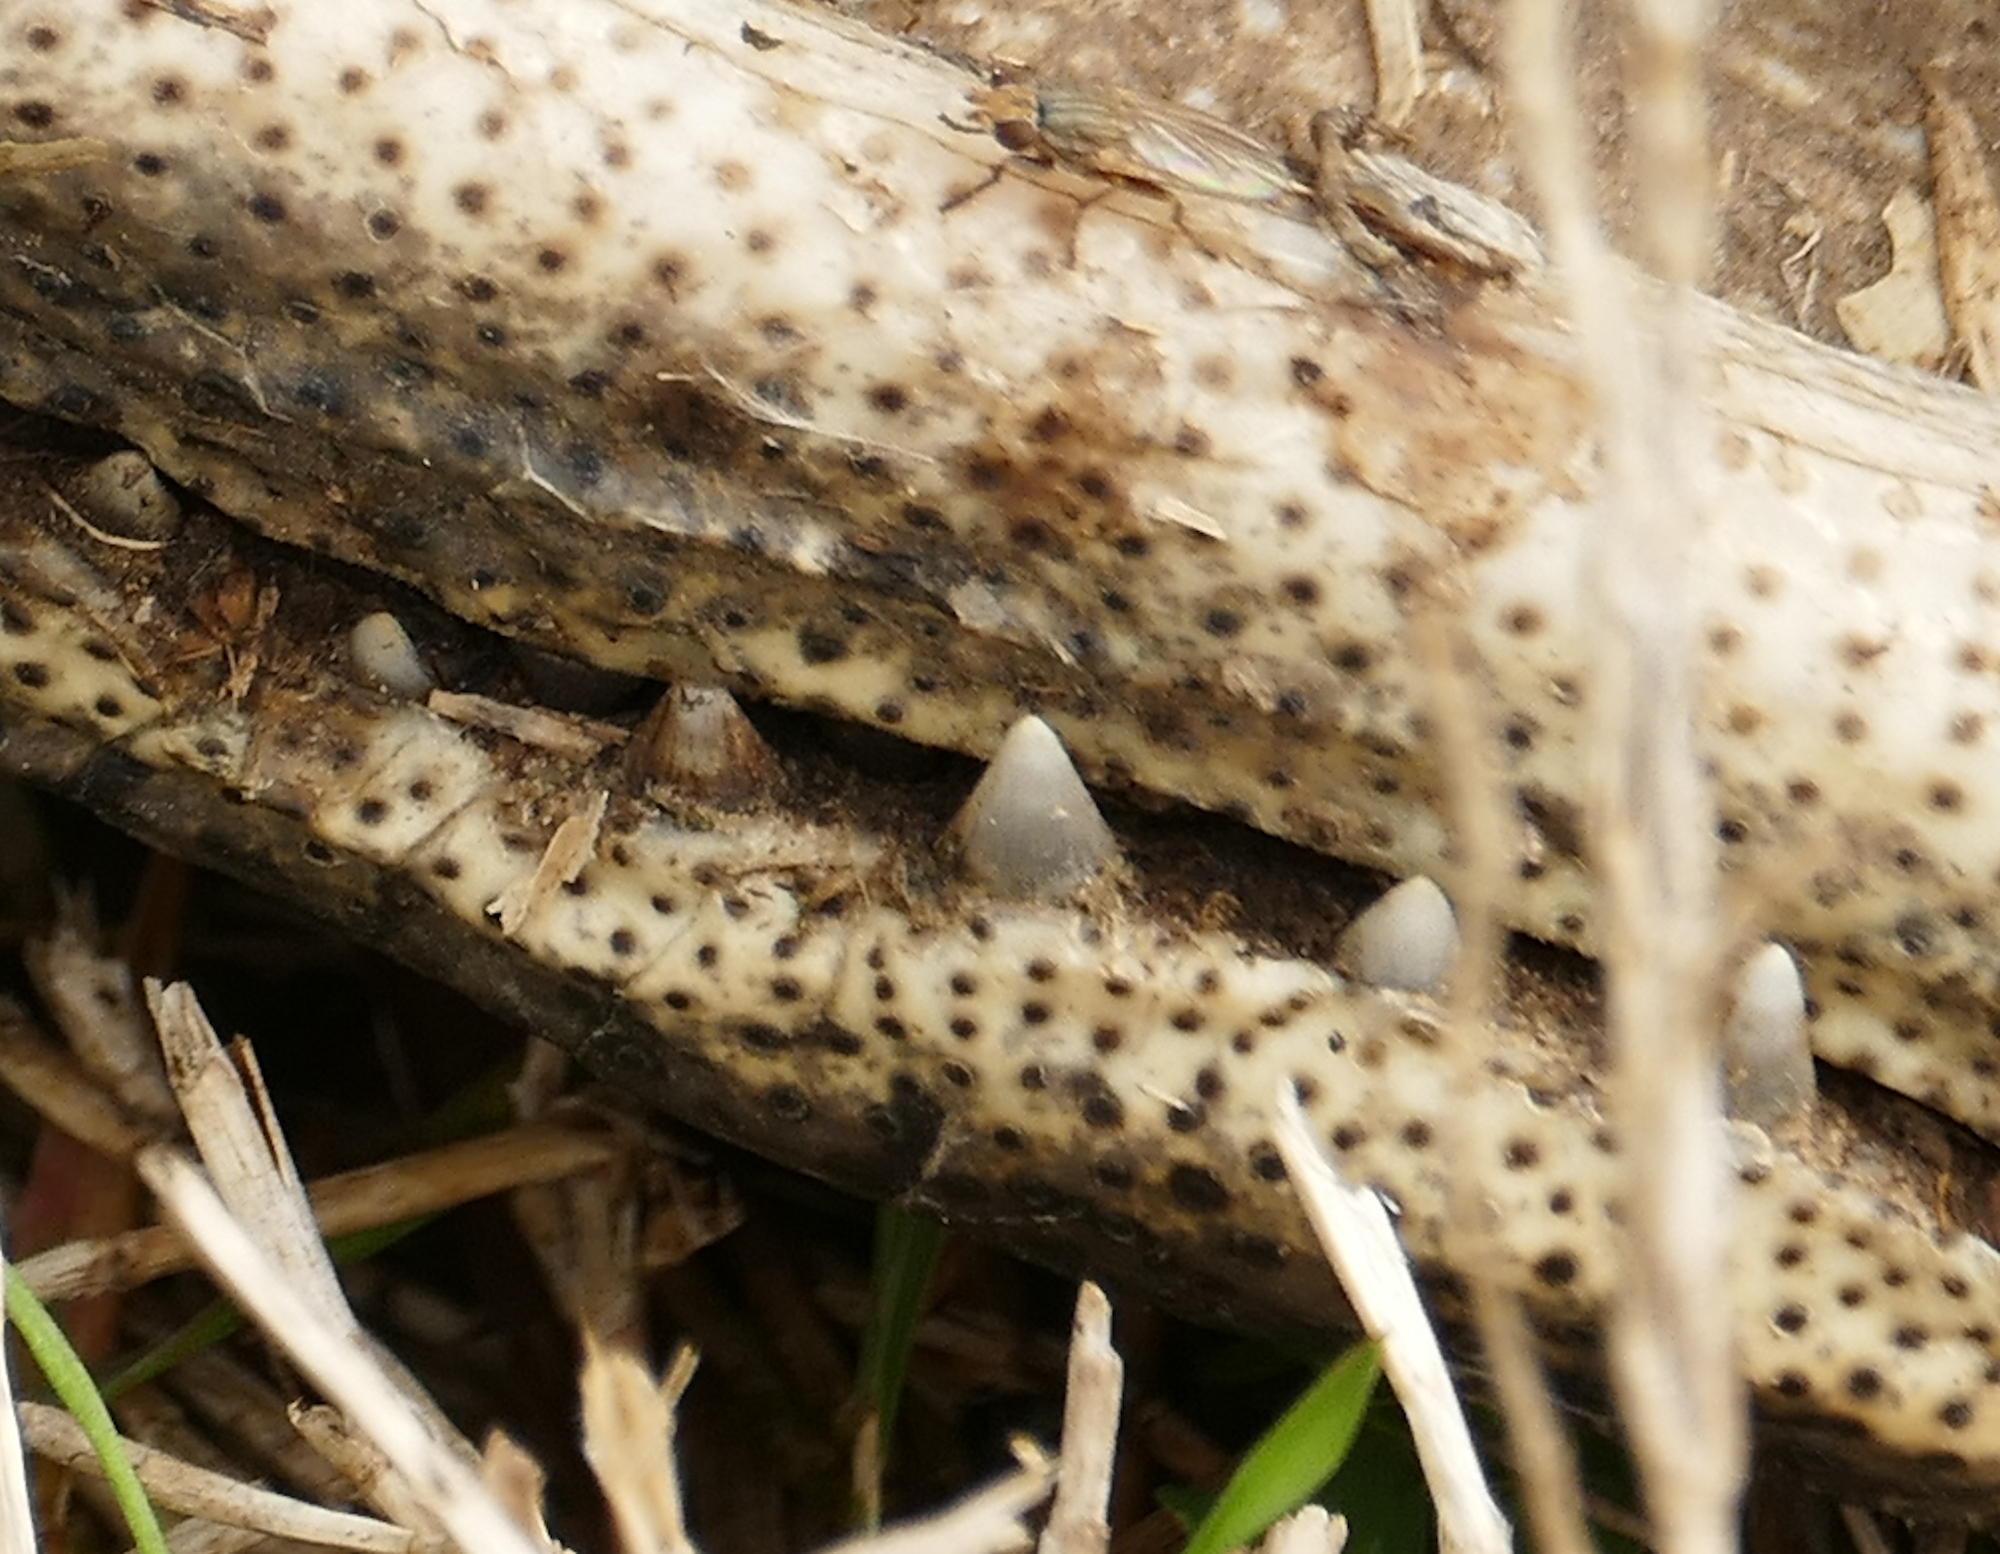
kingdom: Animalia
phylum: Chordata
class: Crocodylia
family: Alligatoridae
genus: Alligator
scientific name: Alligator mississippiensis
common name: American alligator
